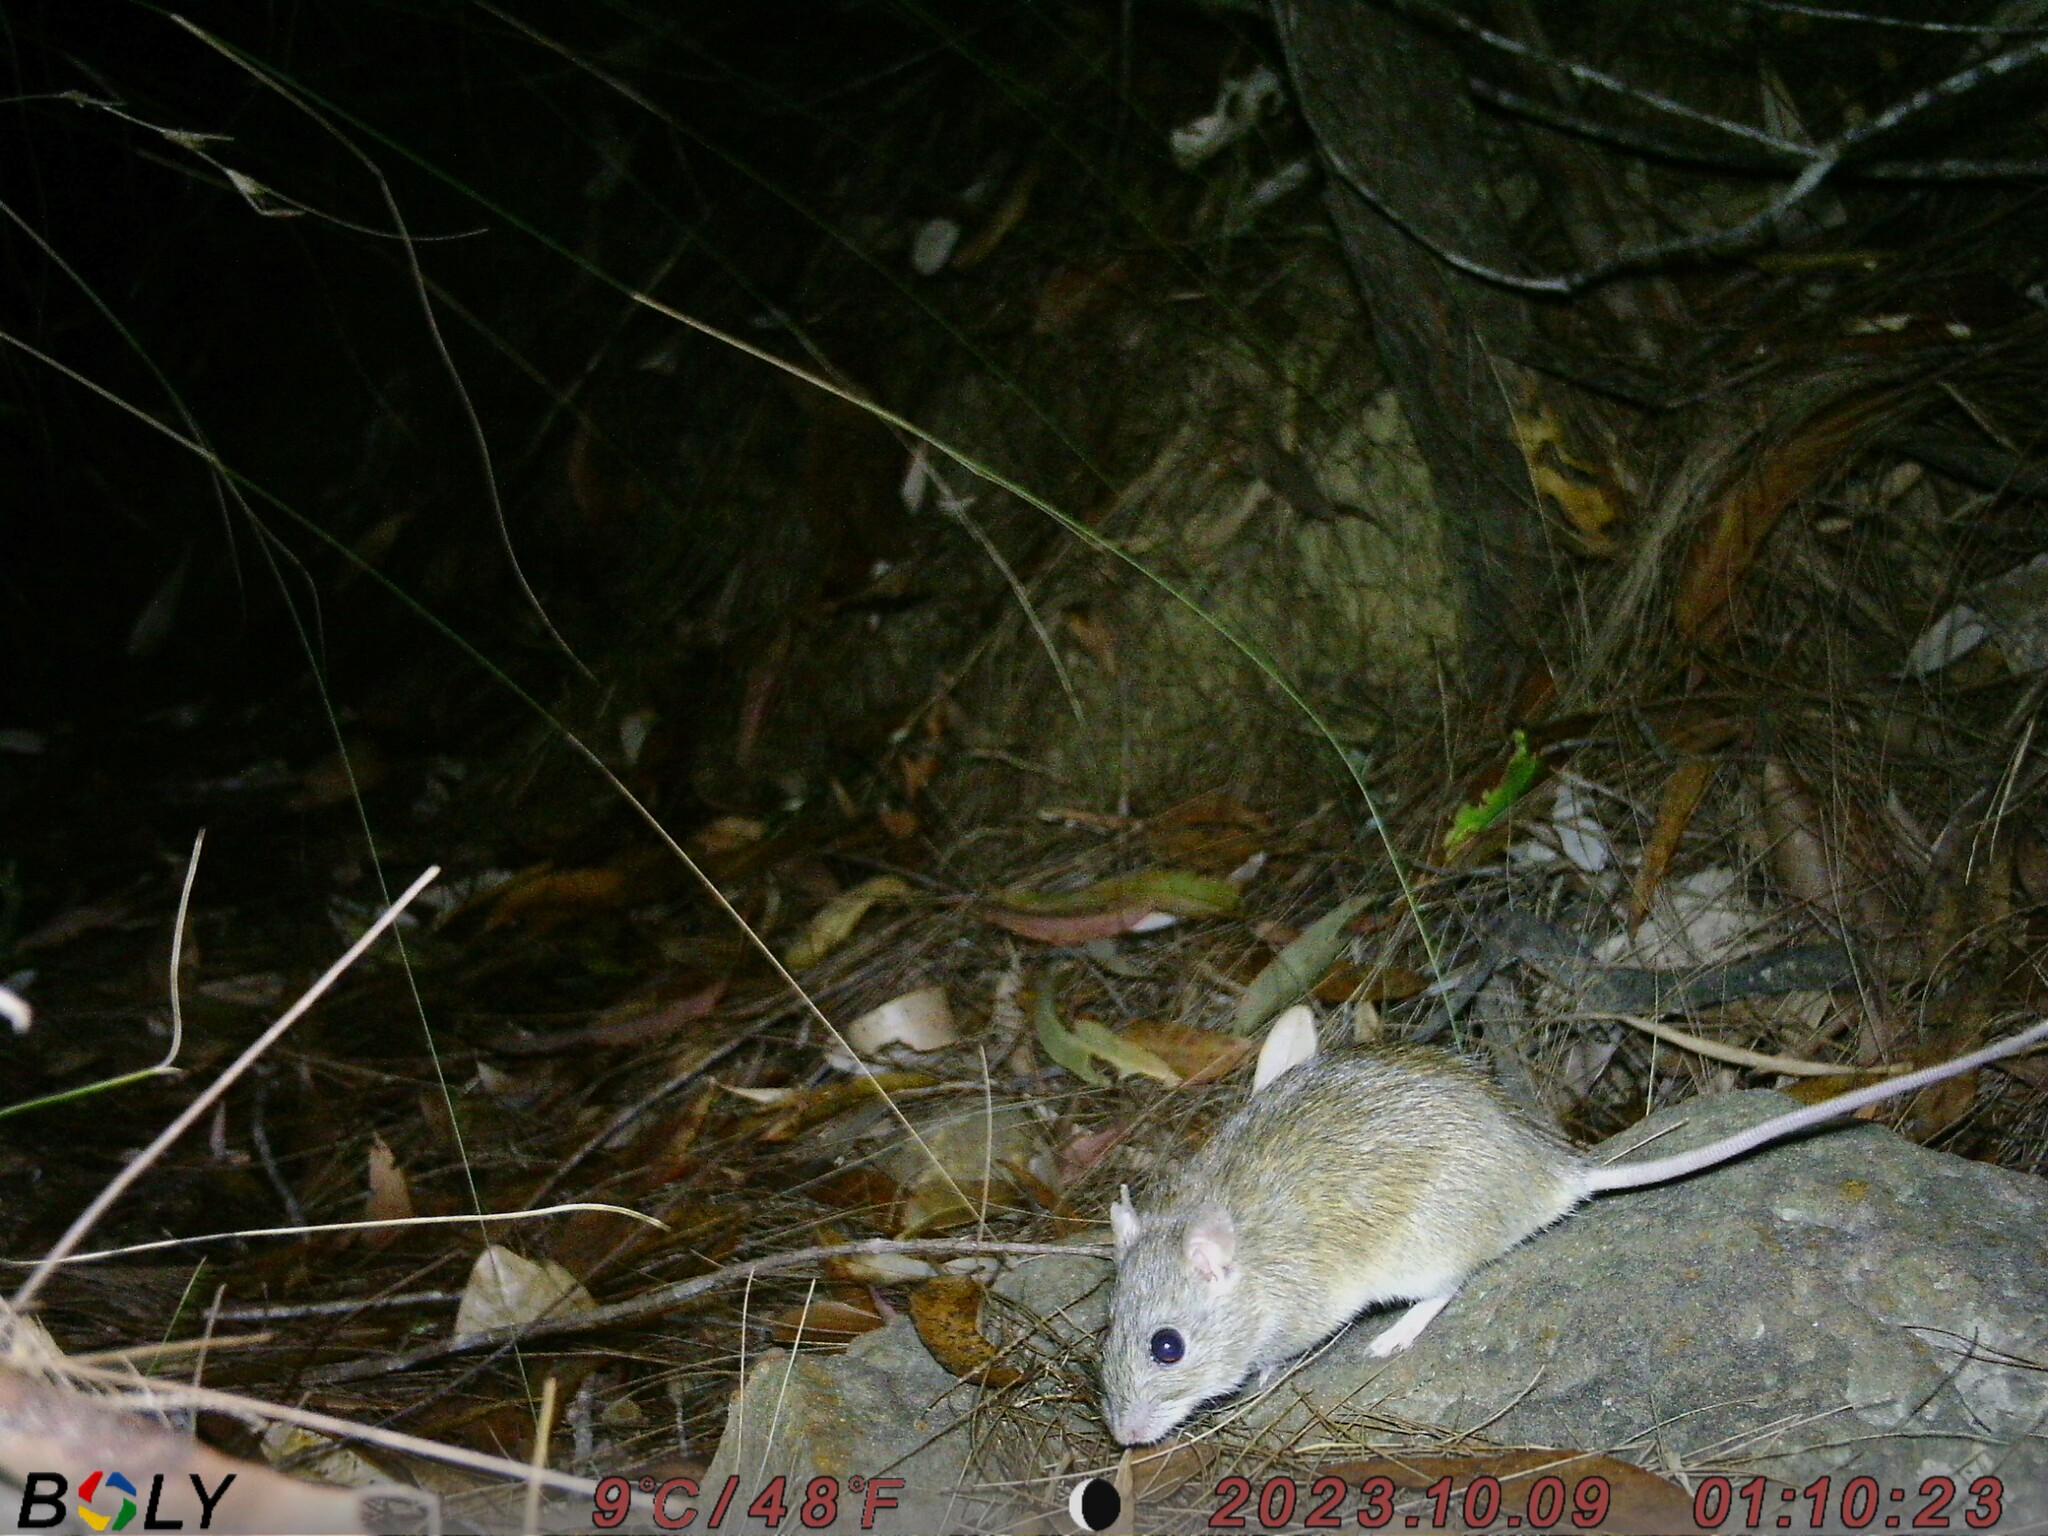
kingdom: Animalia
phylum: Chordata
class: Mammalia
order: Rodentia
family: Muridae
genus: Rattus
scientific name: Rattus tunneyi
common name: Australian pale field rat
